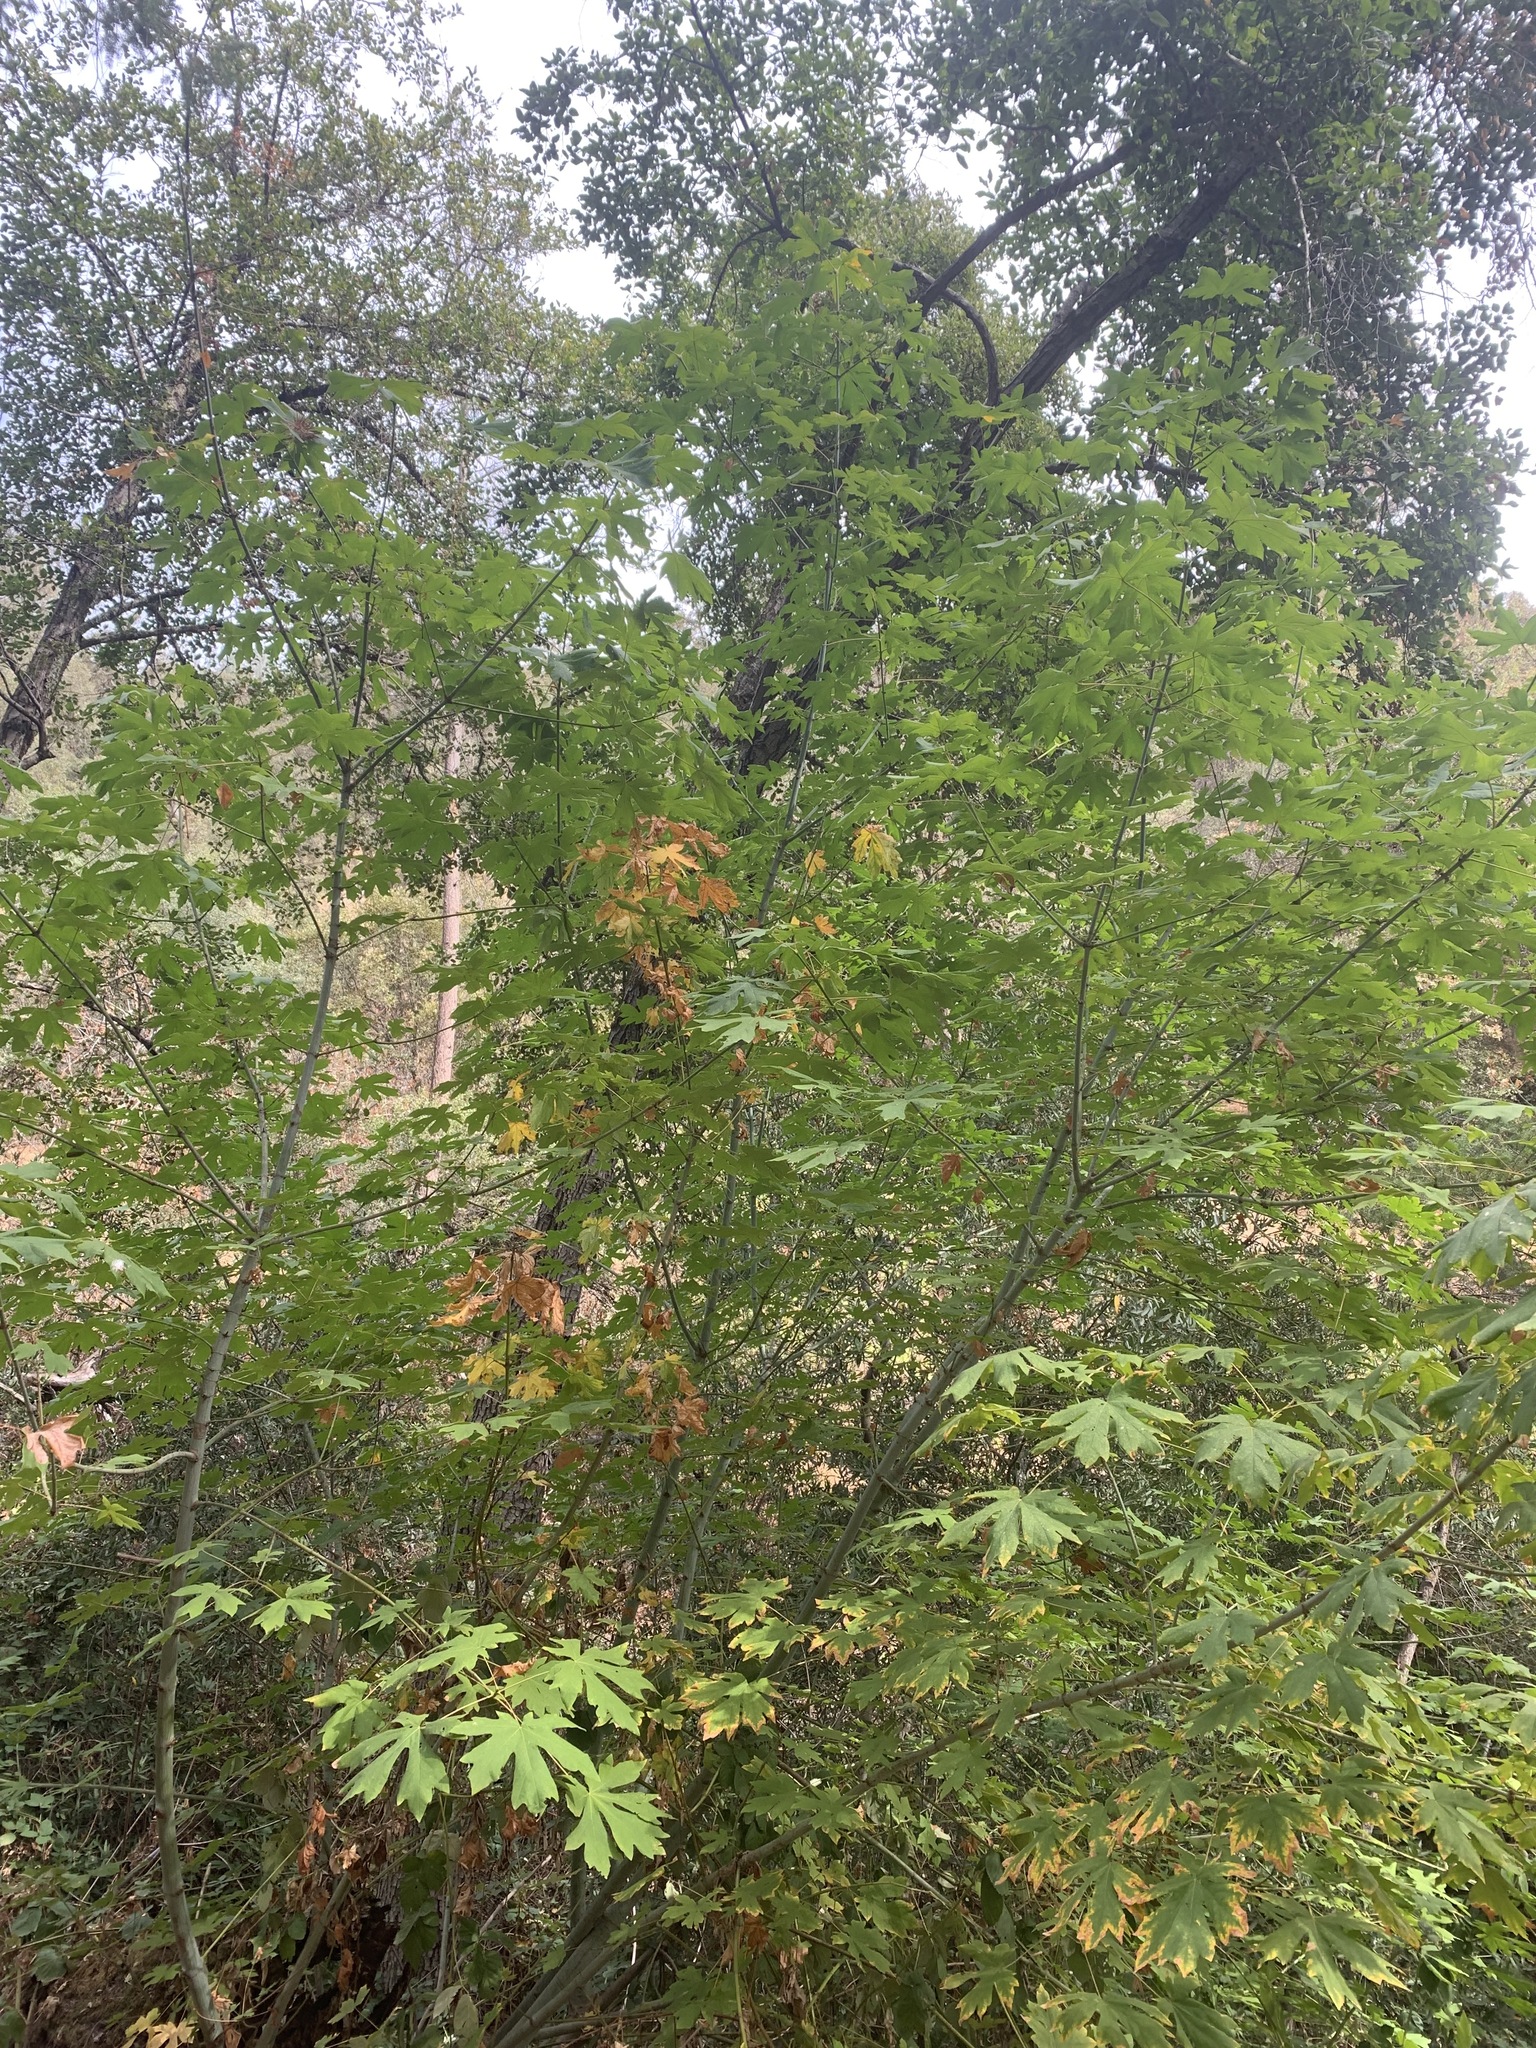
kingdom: Plantae
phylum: Tracheophyta
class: Magnoliopsida
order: Sapindales
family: Sapindaceae
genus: Acer
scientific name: Acer macrophyllum
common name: Oregon maple
